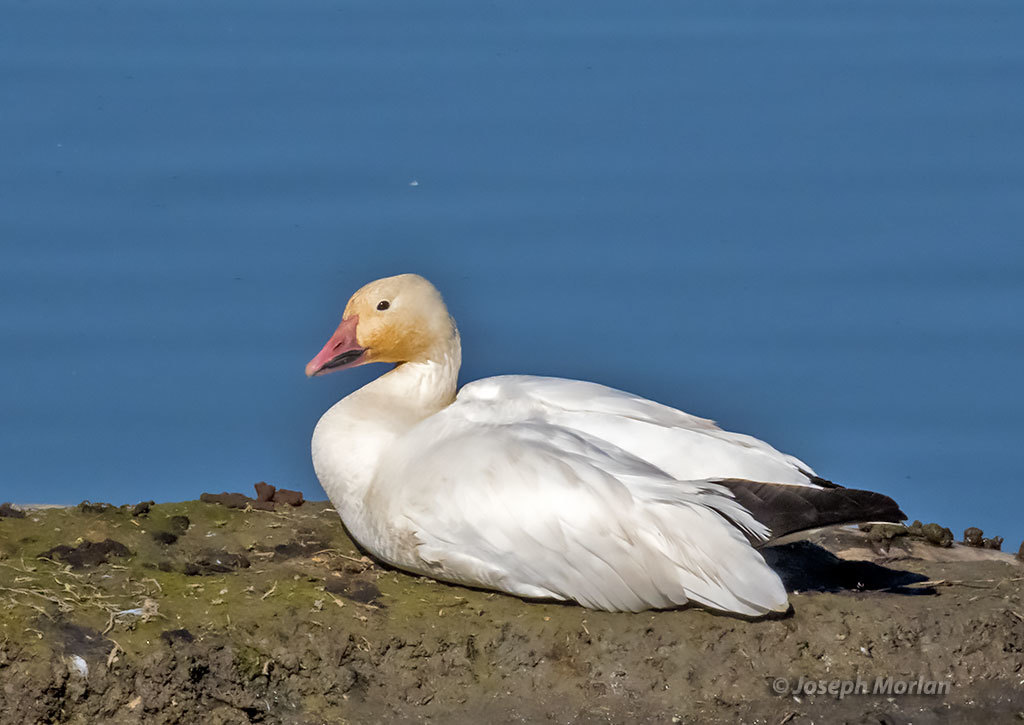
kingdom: Animalia
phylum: Chordata
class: Aves
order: Anseriformes
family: Anatidae
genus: Anser
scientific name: Anser caerulescens
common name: Snow goose
